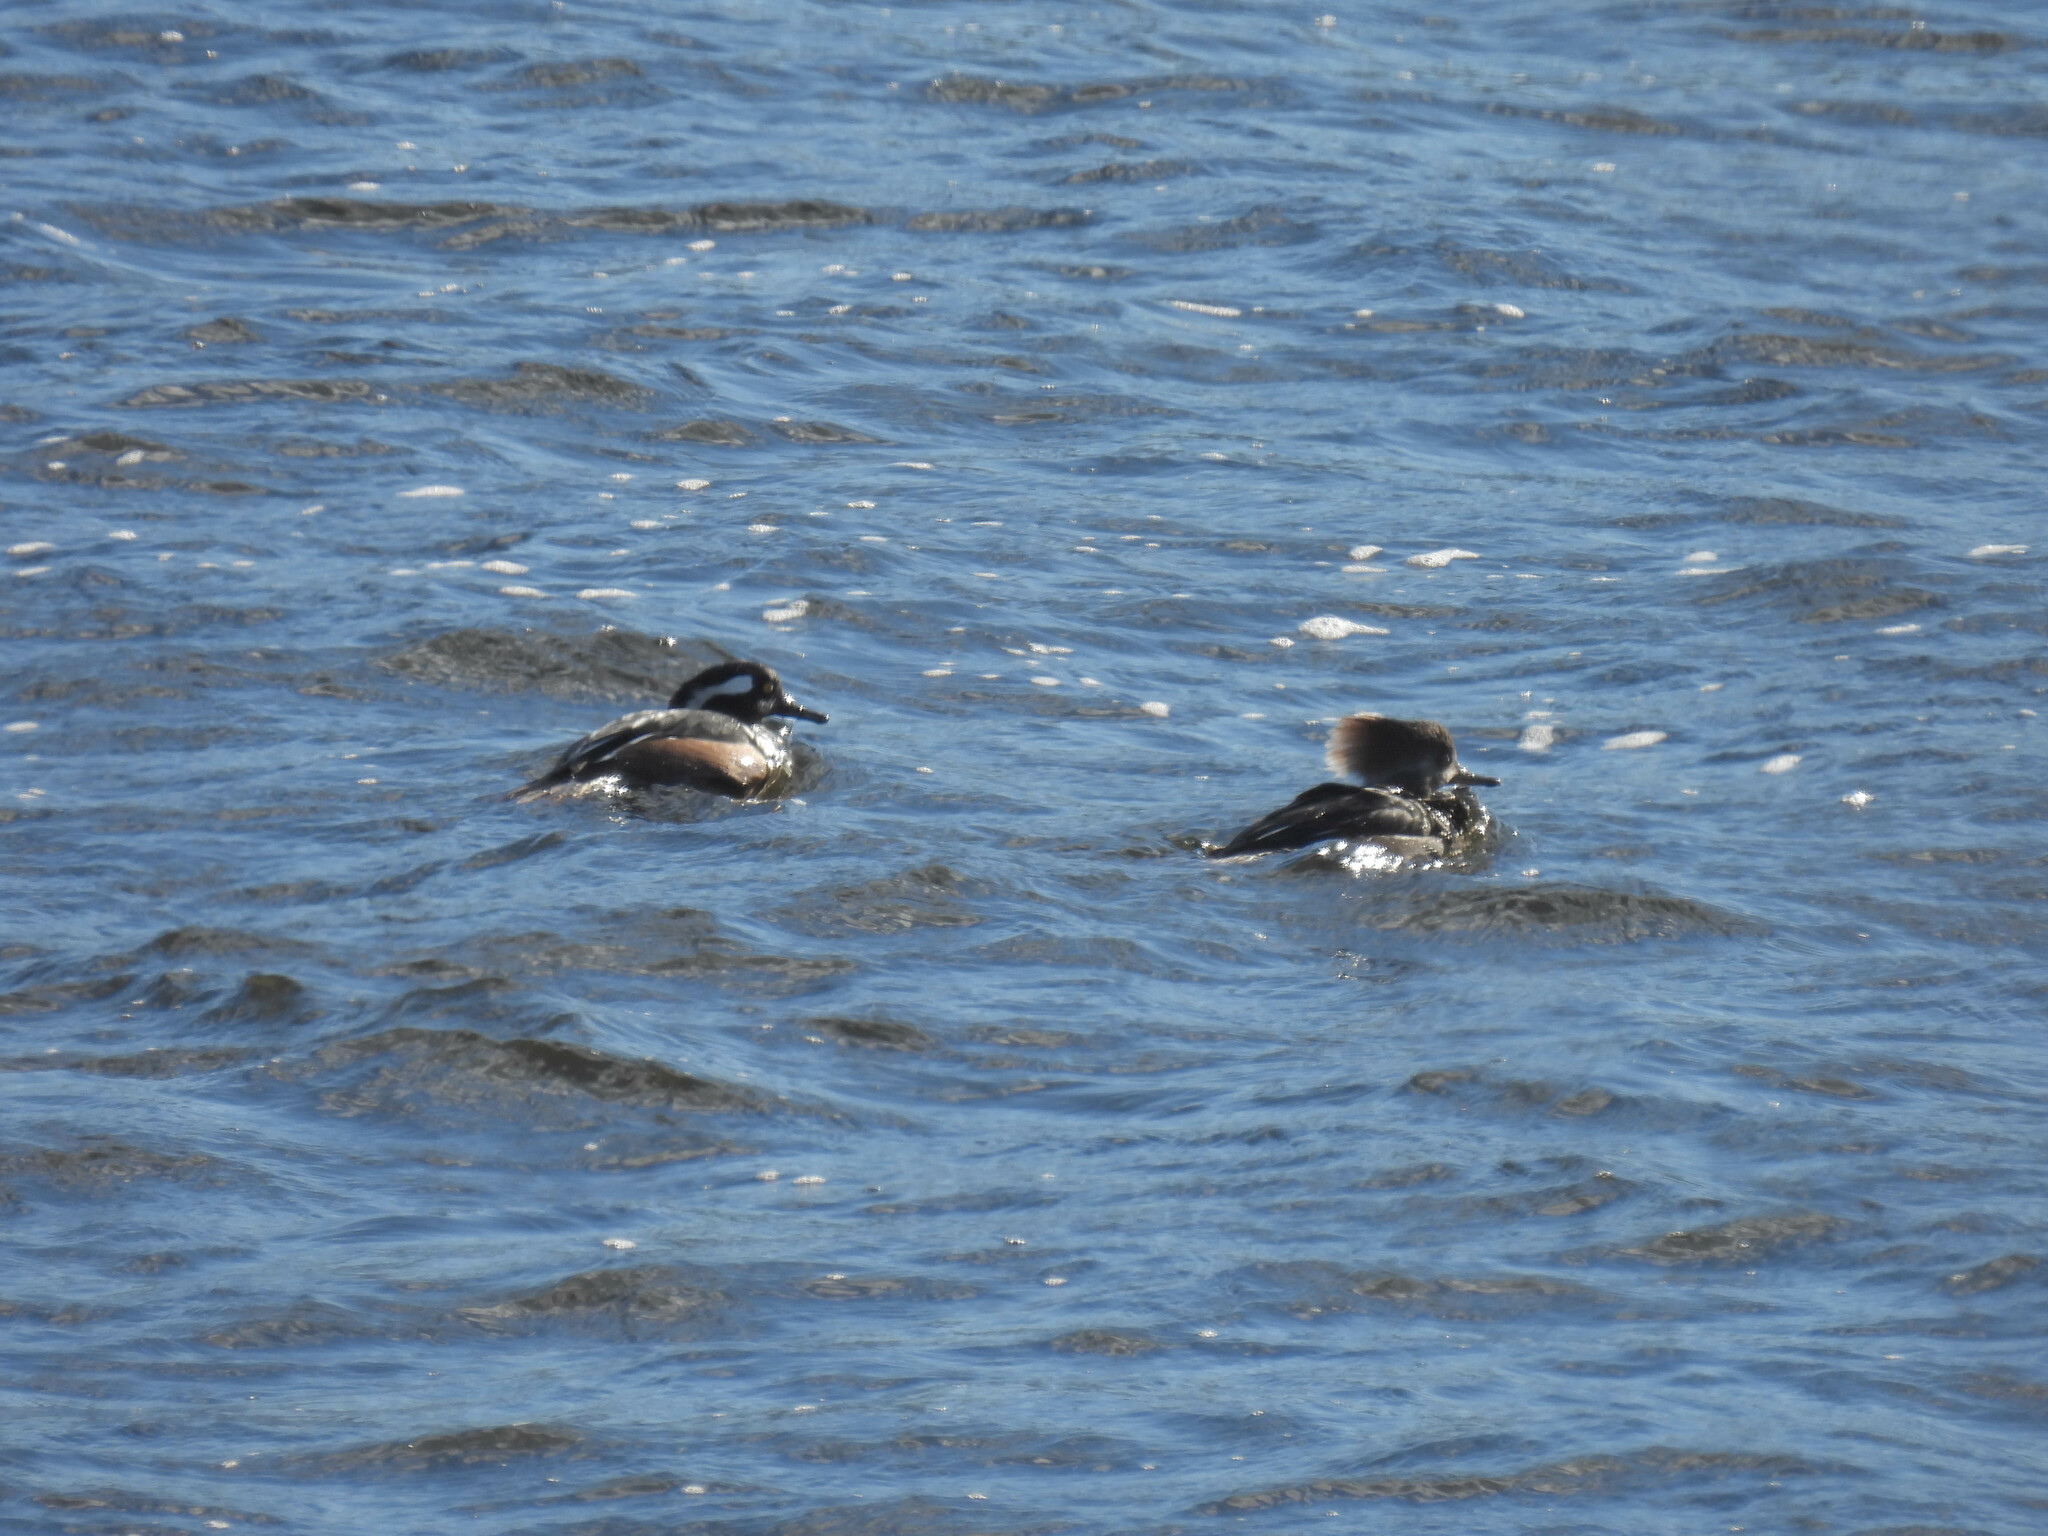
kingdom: Animalia
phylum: Chordata
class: Aves
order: Anseriformes
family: Anatidae
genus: Lophodytes
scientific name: Lophodytes cucullatus
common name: Hooded merganser
